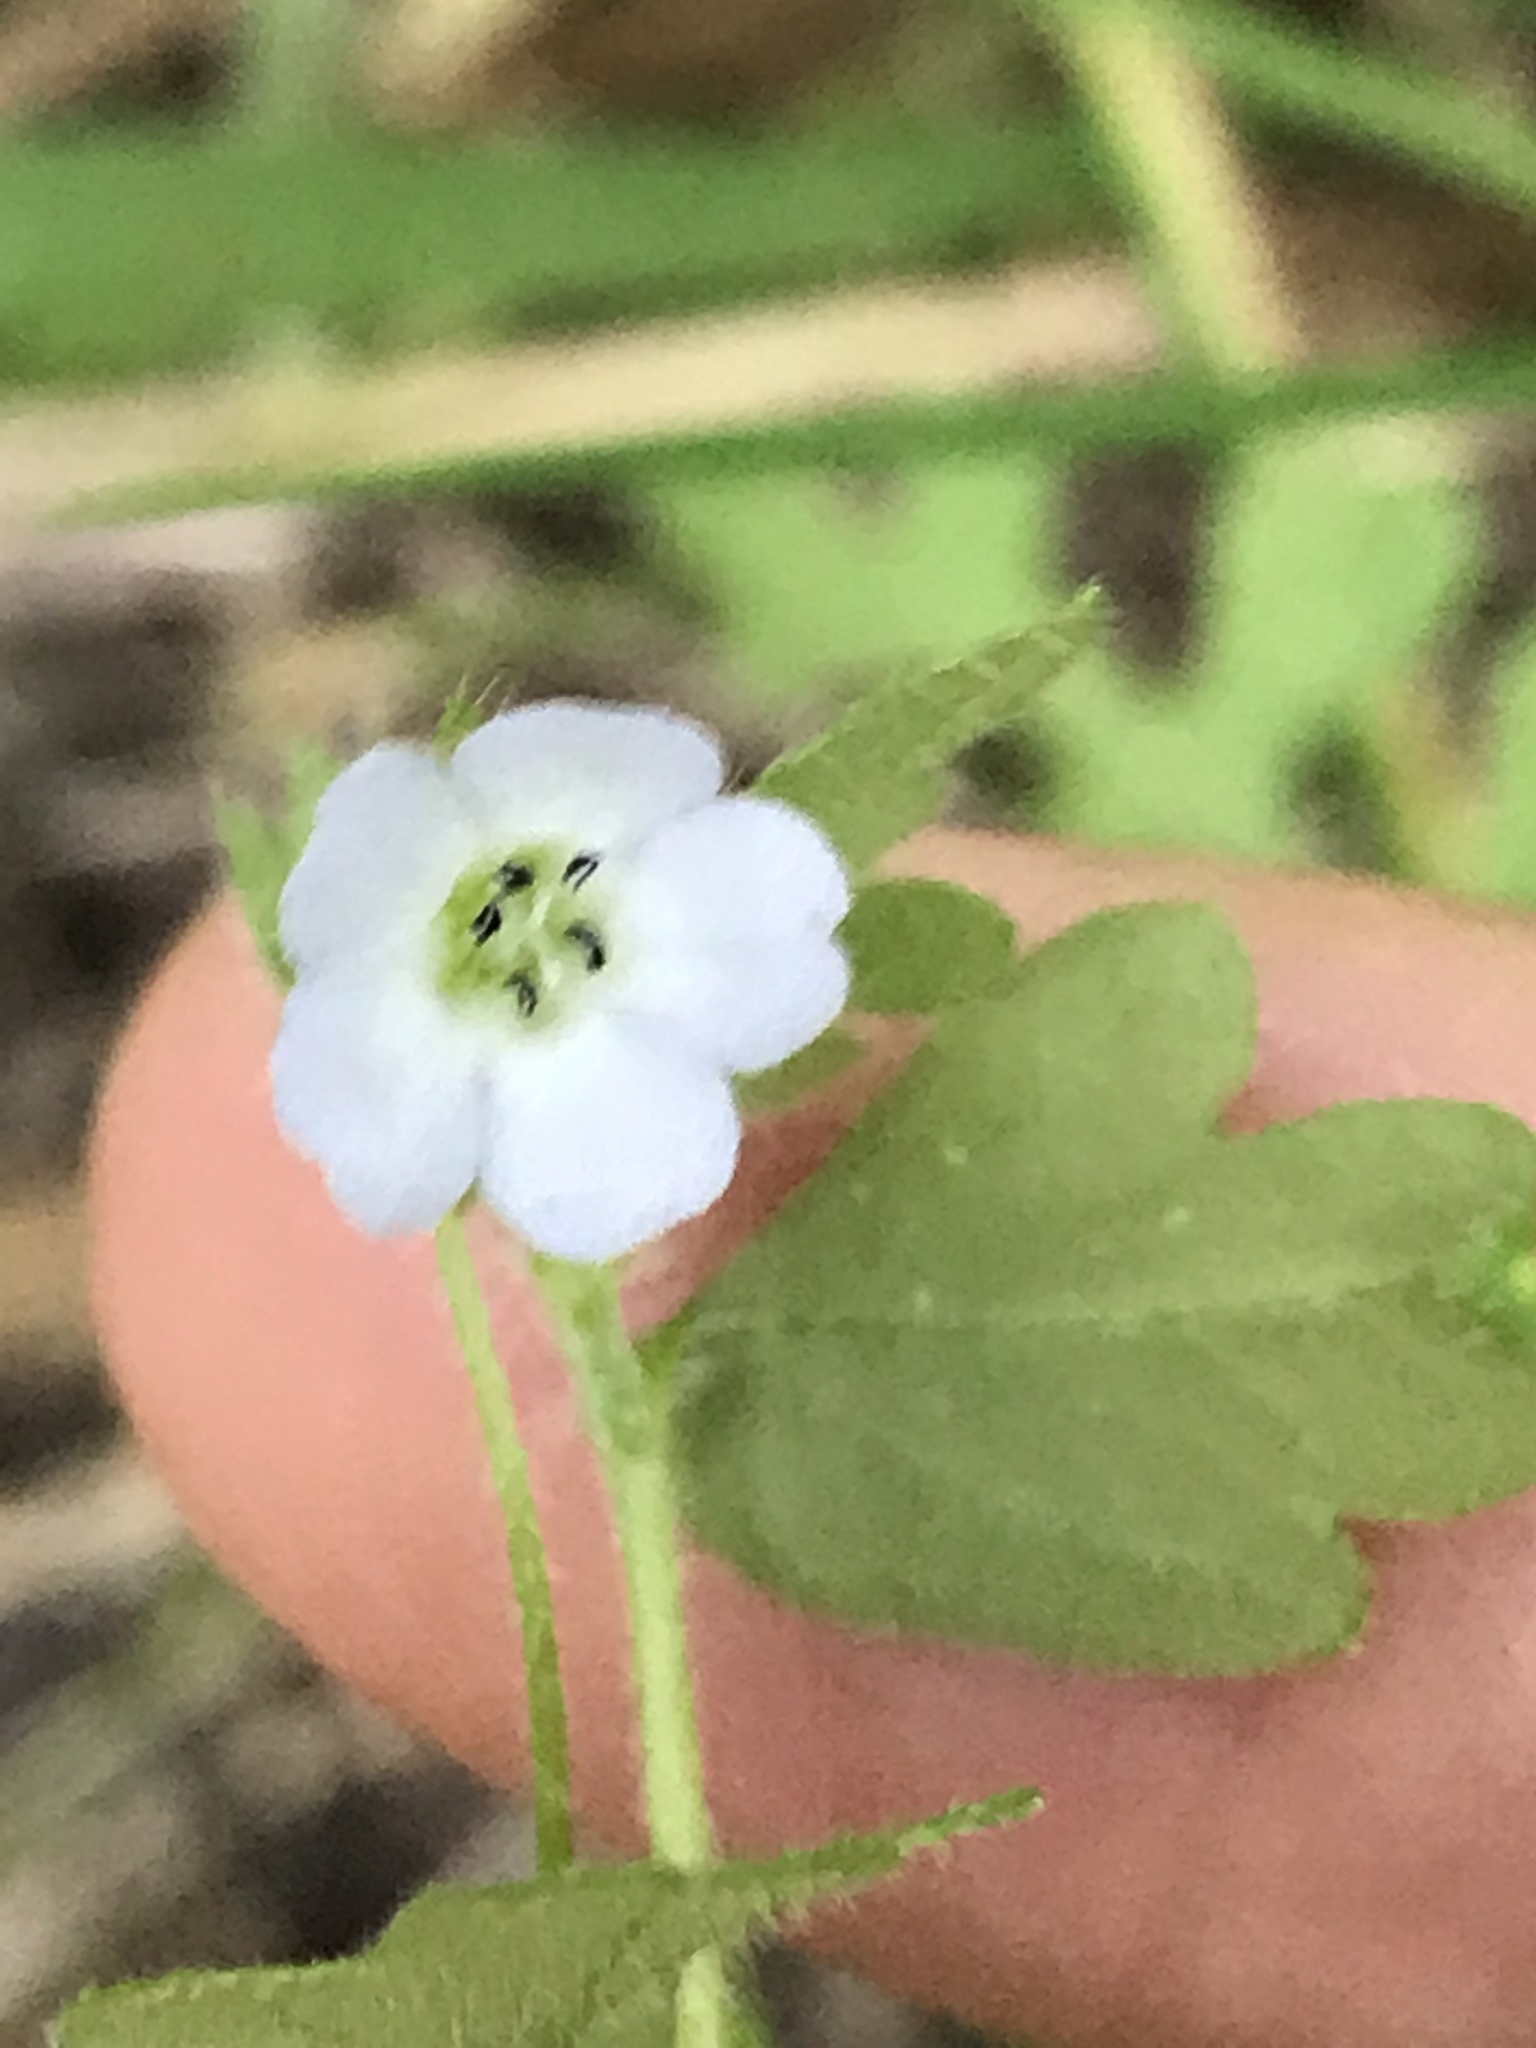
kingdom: Plantae
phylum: Tracheophyta
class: Magnoliopsida
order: Boraginales
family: Hydrophyllaceae
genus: Nemophila
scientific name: Nemophila heterophylla
